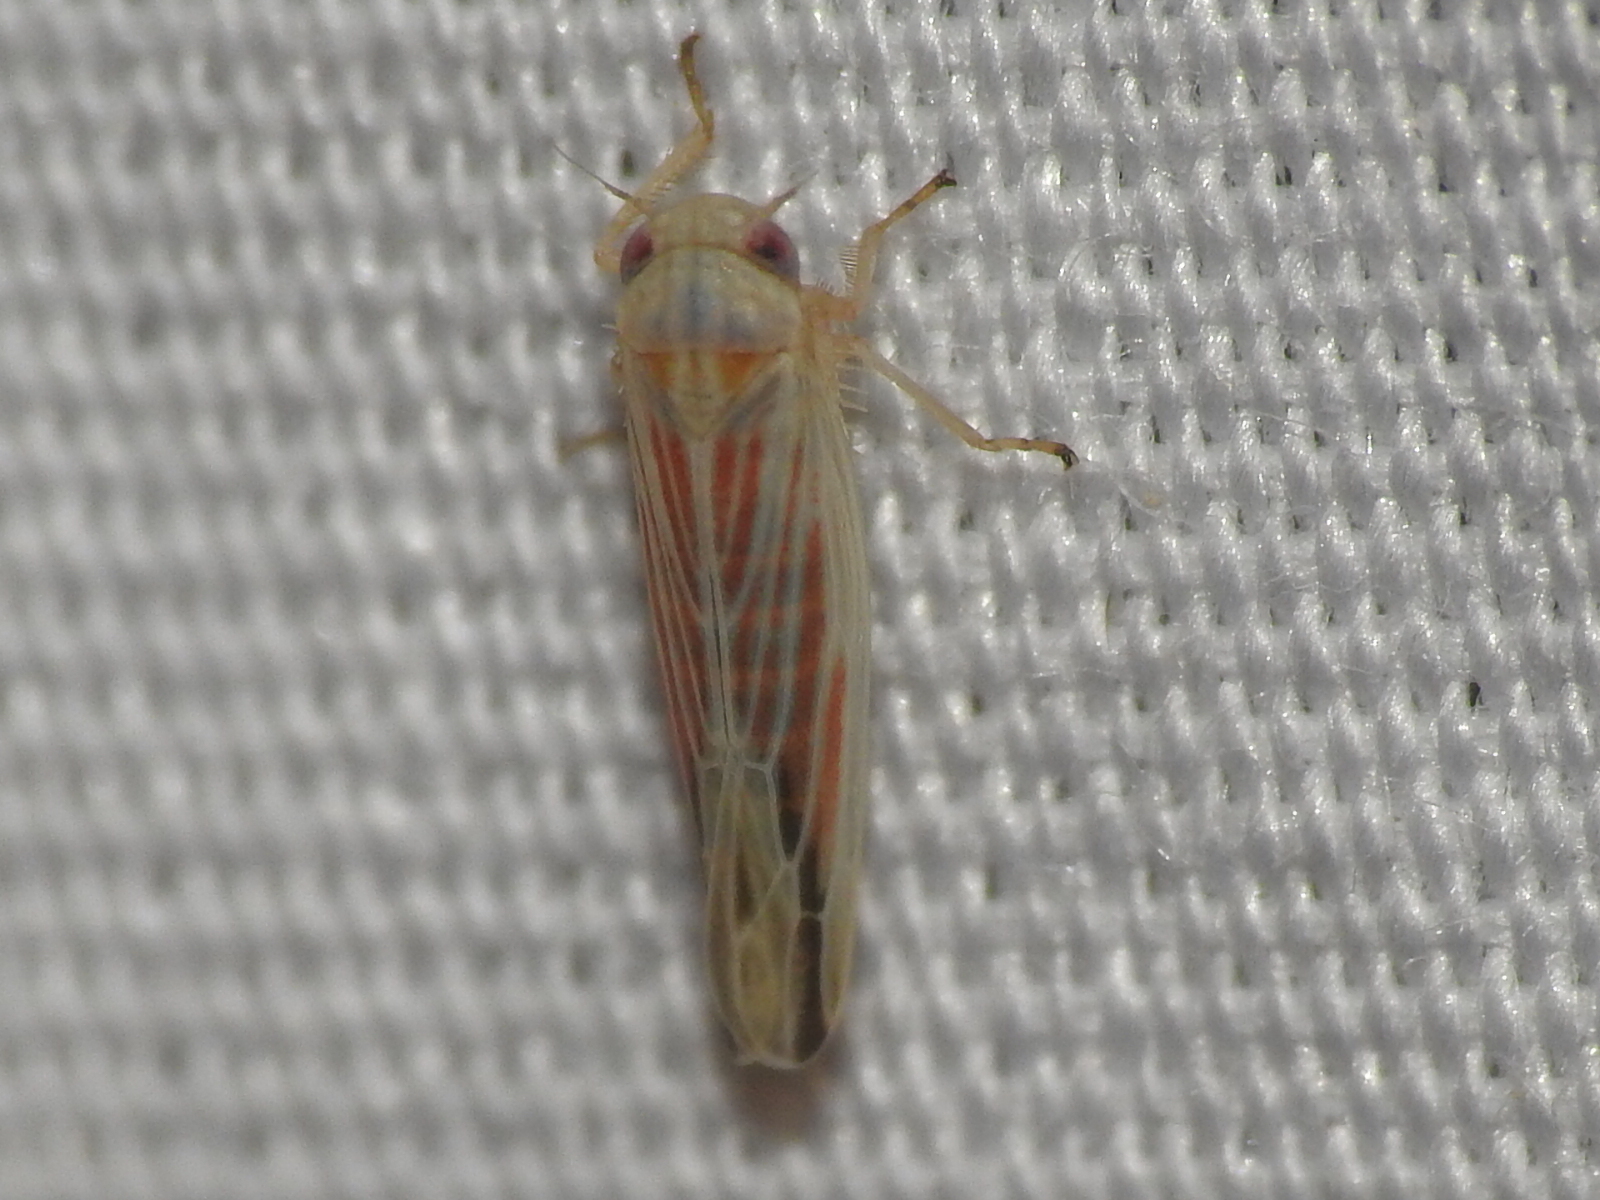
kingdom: Animalia
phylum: Arthropoda
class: Insecta
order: Hemiptera
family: Cicadellidae
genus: Balclutha
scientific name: Balclutha rubrostriata
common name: Red-streaked leafhopper
